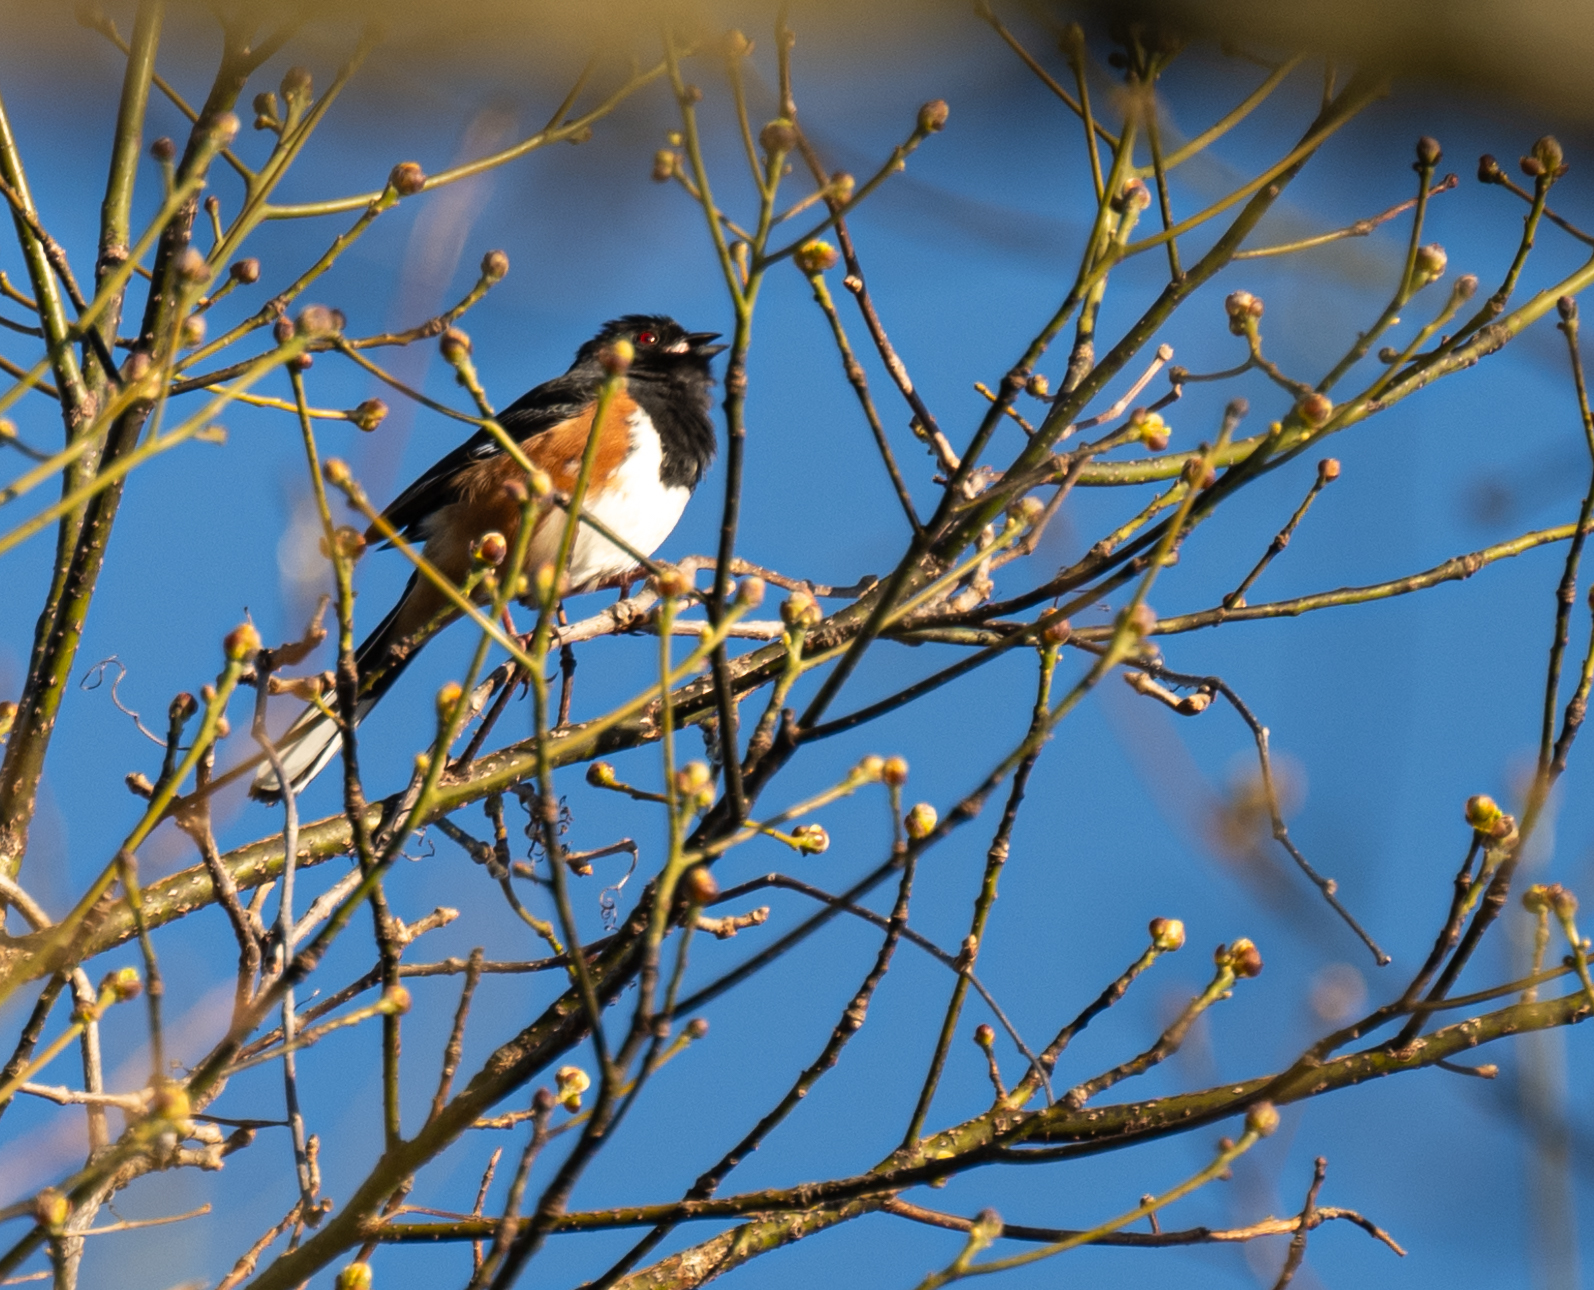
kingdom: Animalia
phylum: Chordata
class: Aves
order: Passeriformes
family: Passerellidae
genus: Pipilo
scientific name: Pipilo erythrophthalmus
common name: Eastern towhee
